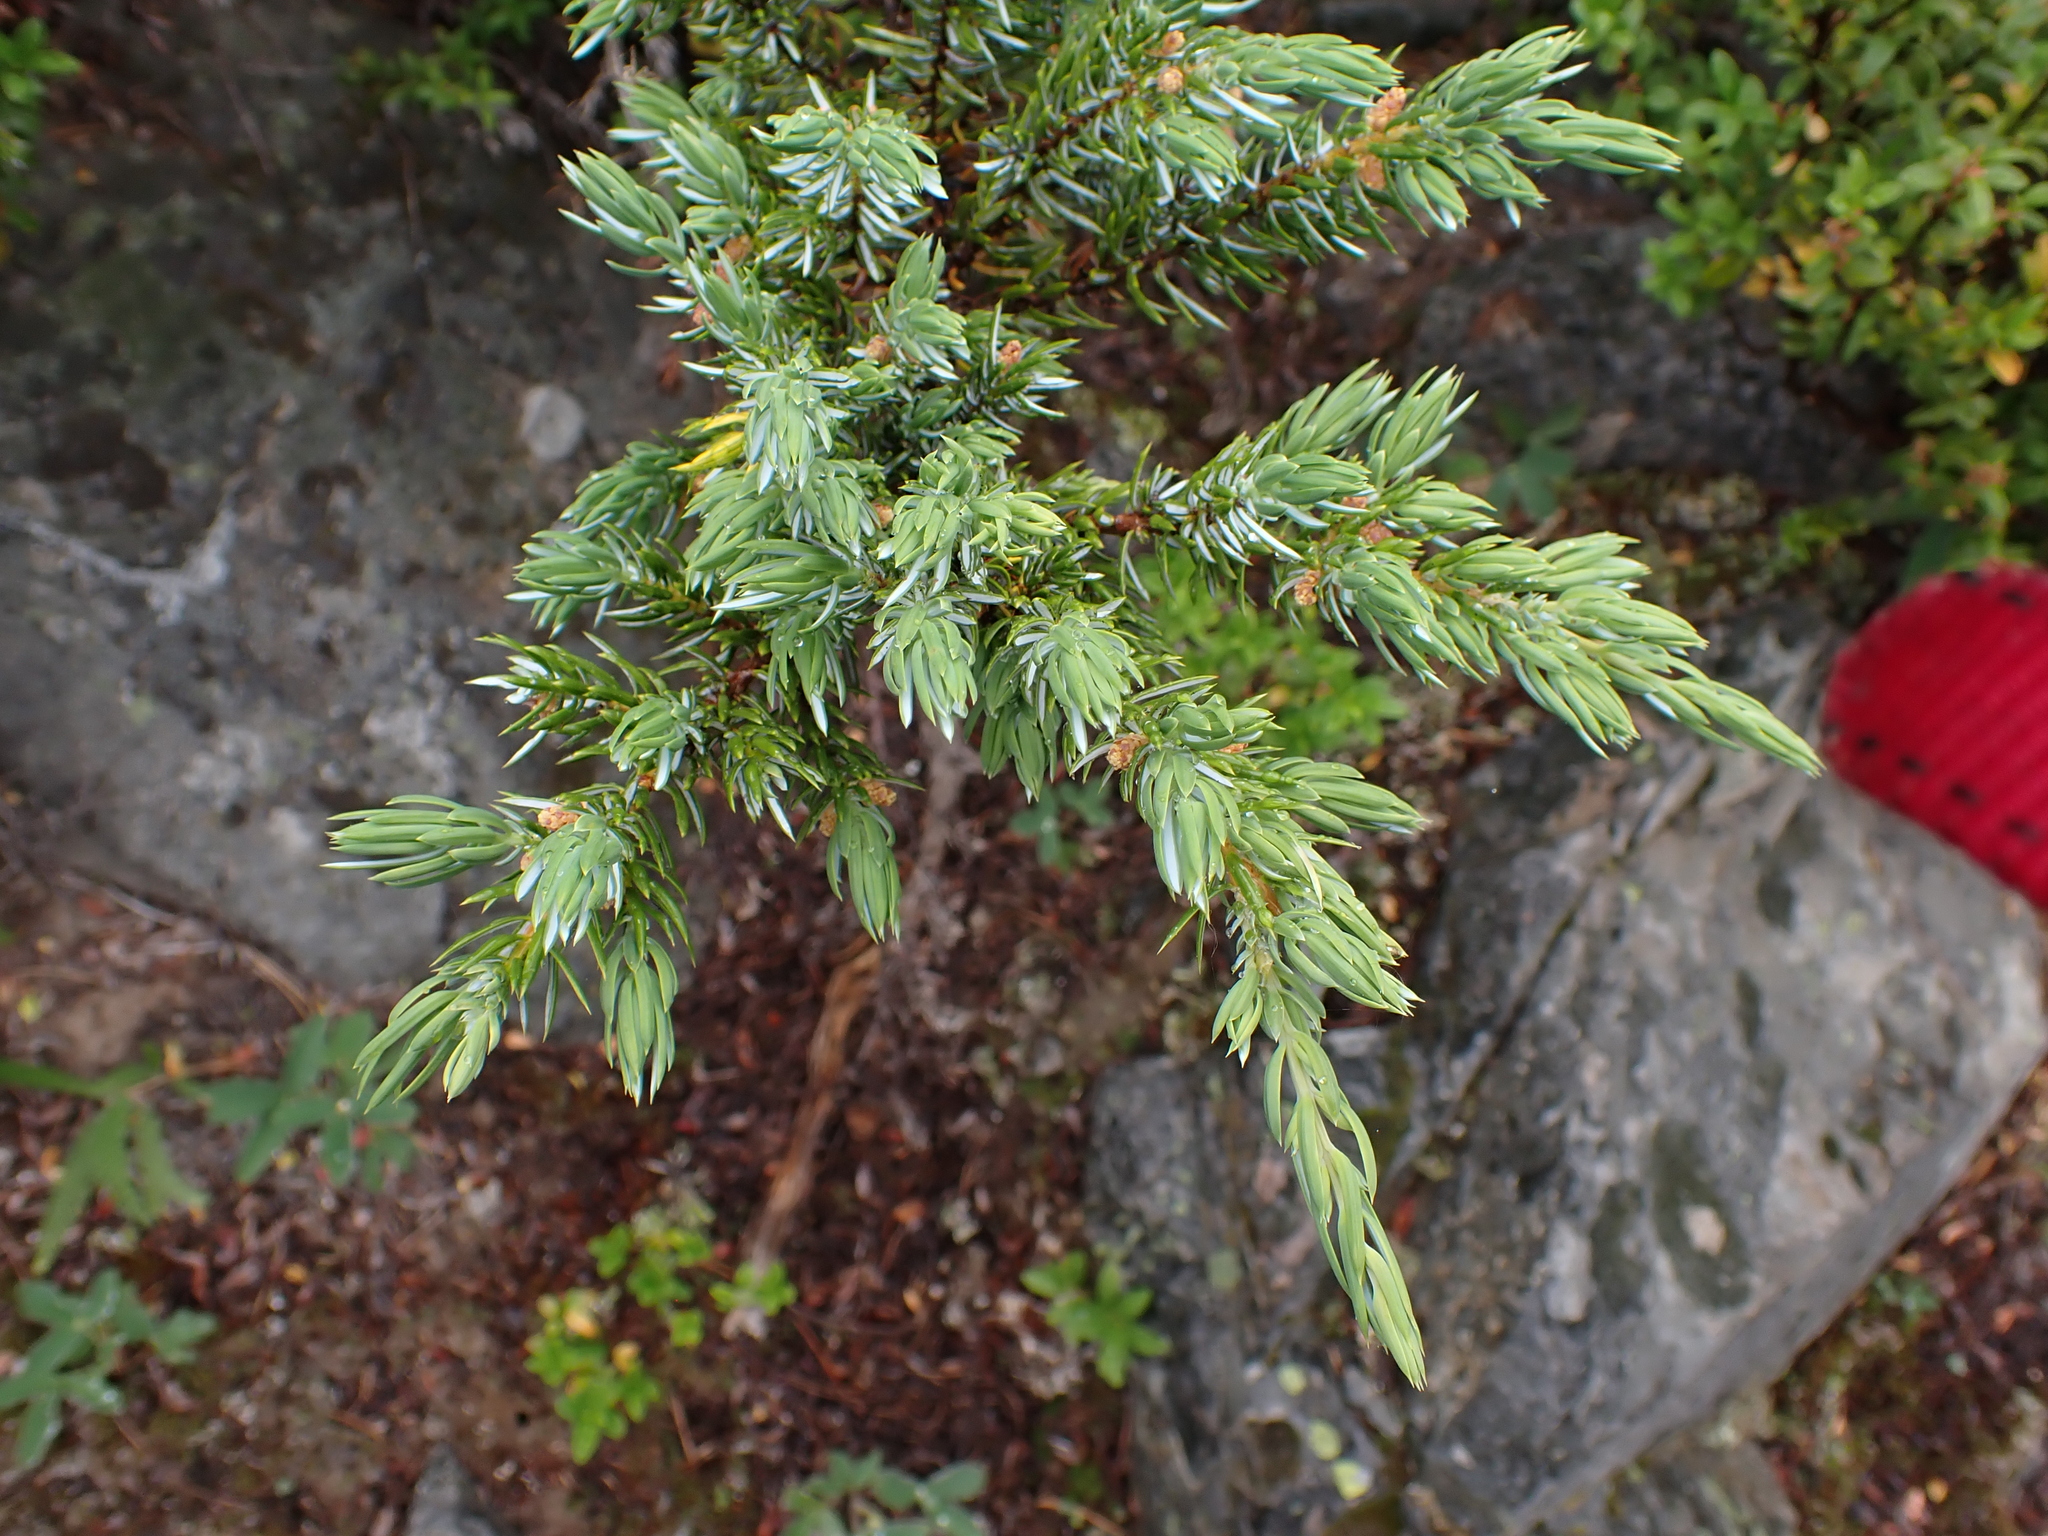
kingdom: Plantae
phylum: Tracheophyta
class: Pinopsida
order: Pinales
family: Cupressaceae
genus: Juniperus
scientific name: Juniperus communis
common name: Common juniper
